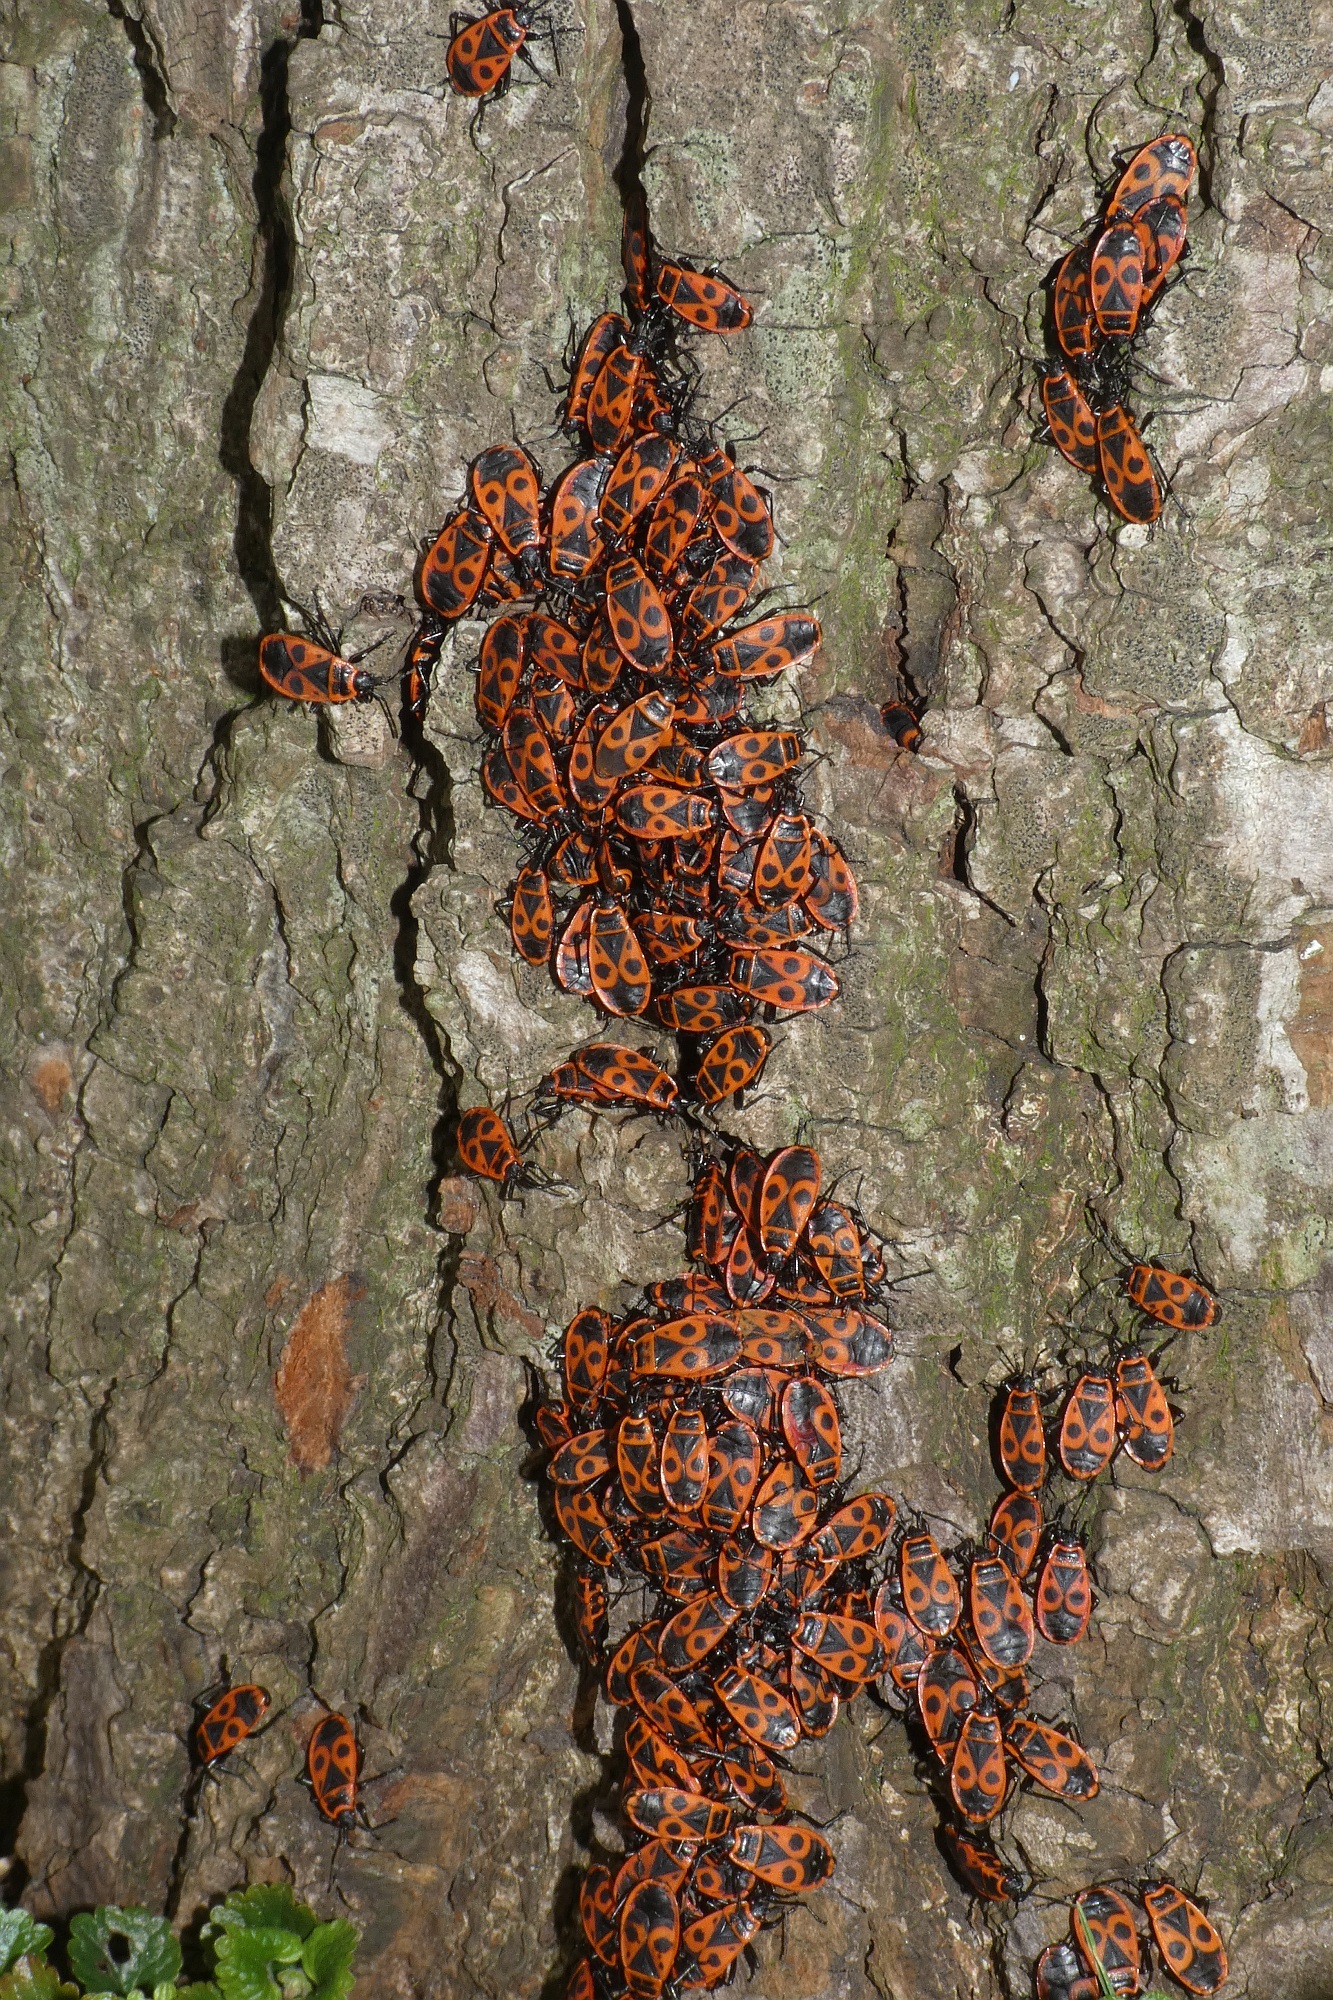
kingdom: Animalia
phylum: Arthropoda
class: Insecta
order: Hemiptera
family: Pyrrhocoridae
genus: Pyrrhocoris
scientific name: Pyrrhocoris apterus
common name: Firebug
